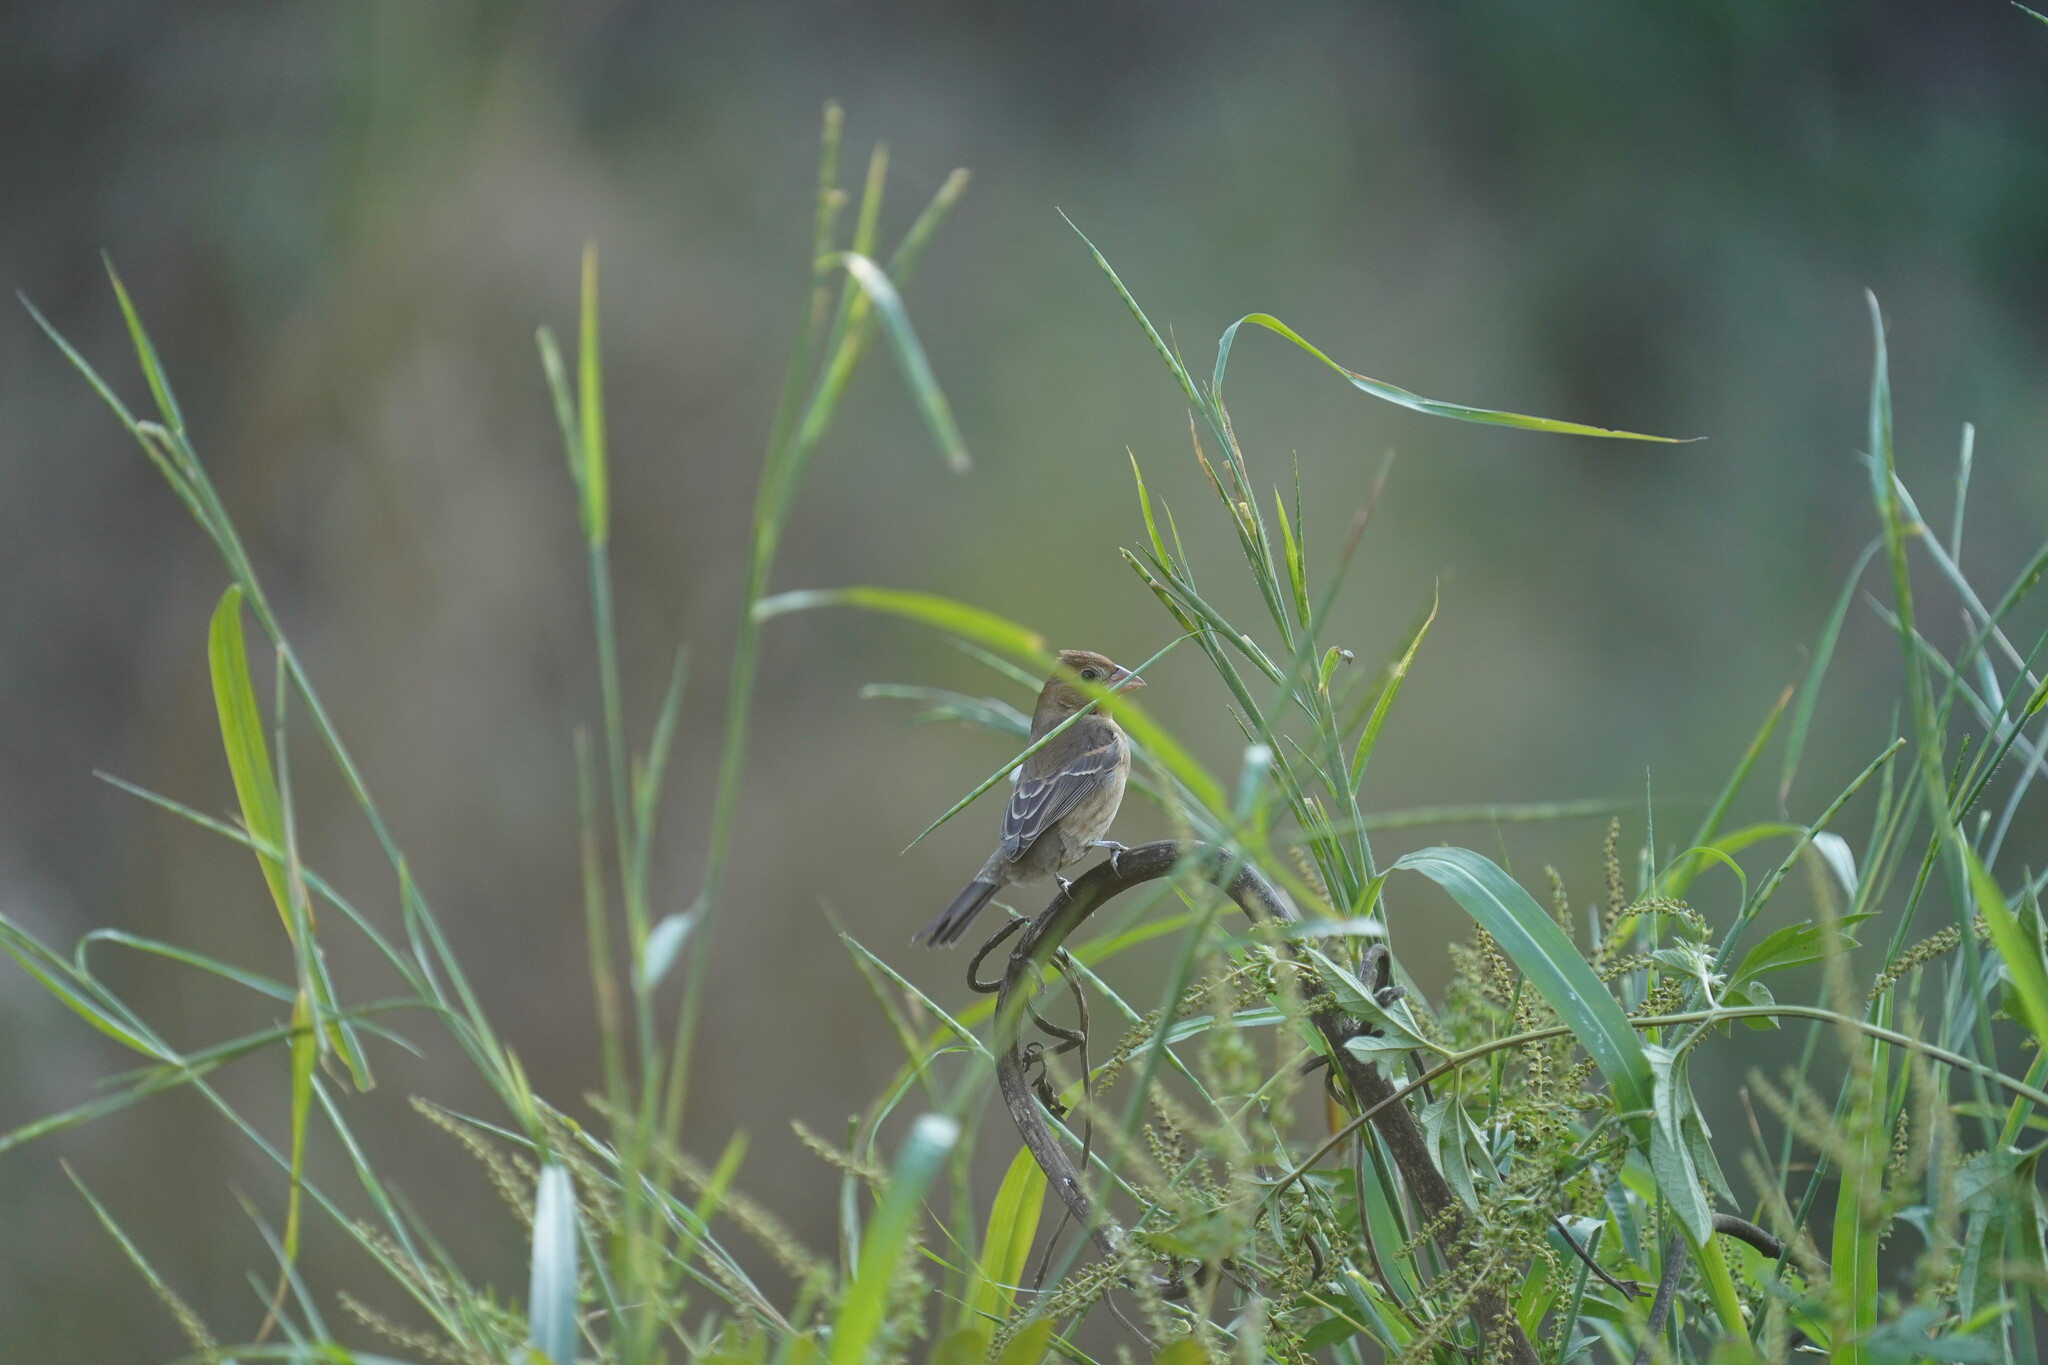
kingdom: Animalia
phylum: Chordata
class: Aves
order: Passeriformes
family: Cardinalidae
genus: Passerina
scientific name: Passerina caerulea
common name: Blue grosbeak
